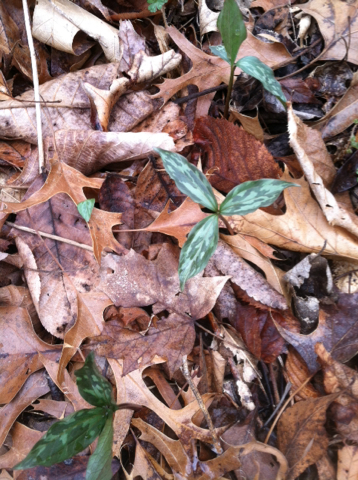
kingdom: Plantae
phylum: Tracheophyta
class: Liliopsida
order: Liliales
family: Melanthiaceae
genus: Trillium
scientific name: Trillium recurvatum
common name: Bloody butcher
